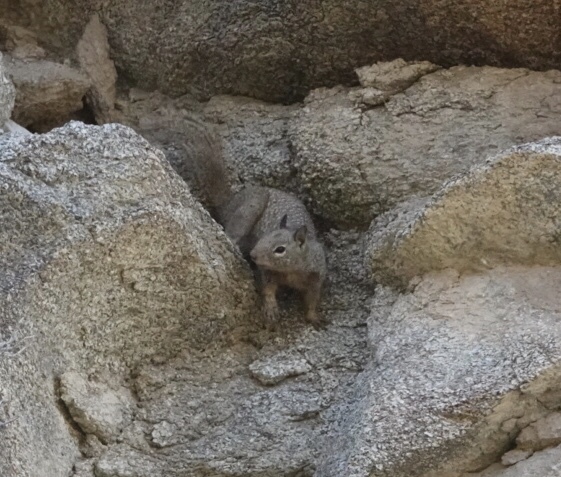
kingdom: Animalia
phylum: Chordata
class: Mammalia
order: Rodentia
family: Sciuridae
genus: Otospermophilus
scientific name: Otospermophilus beecheyi
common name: California ground squirrel
